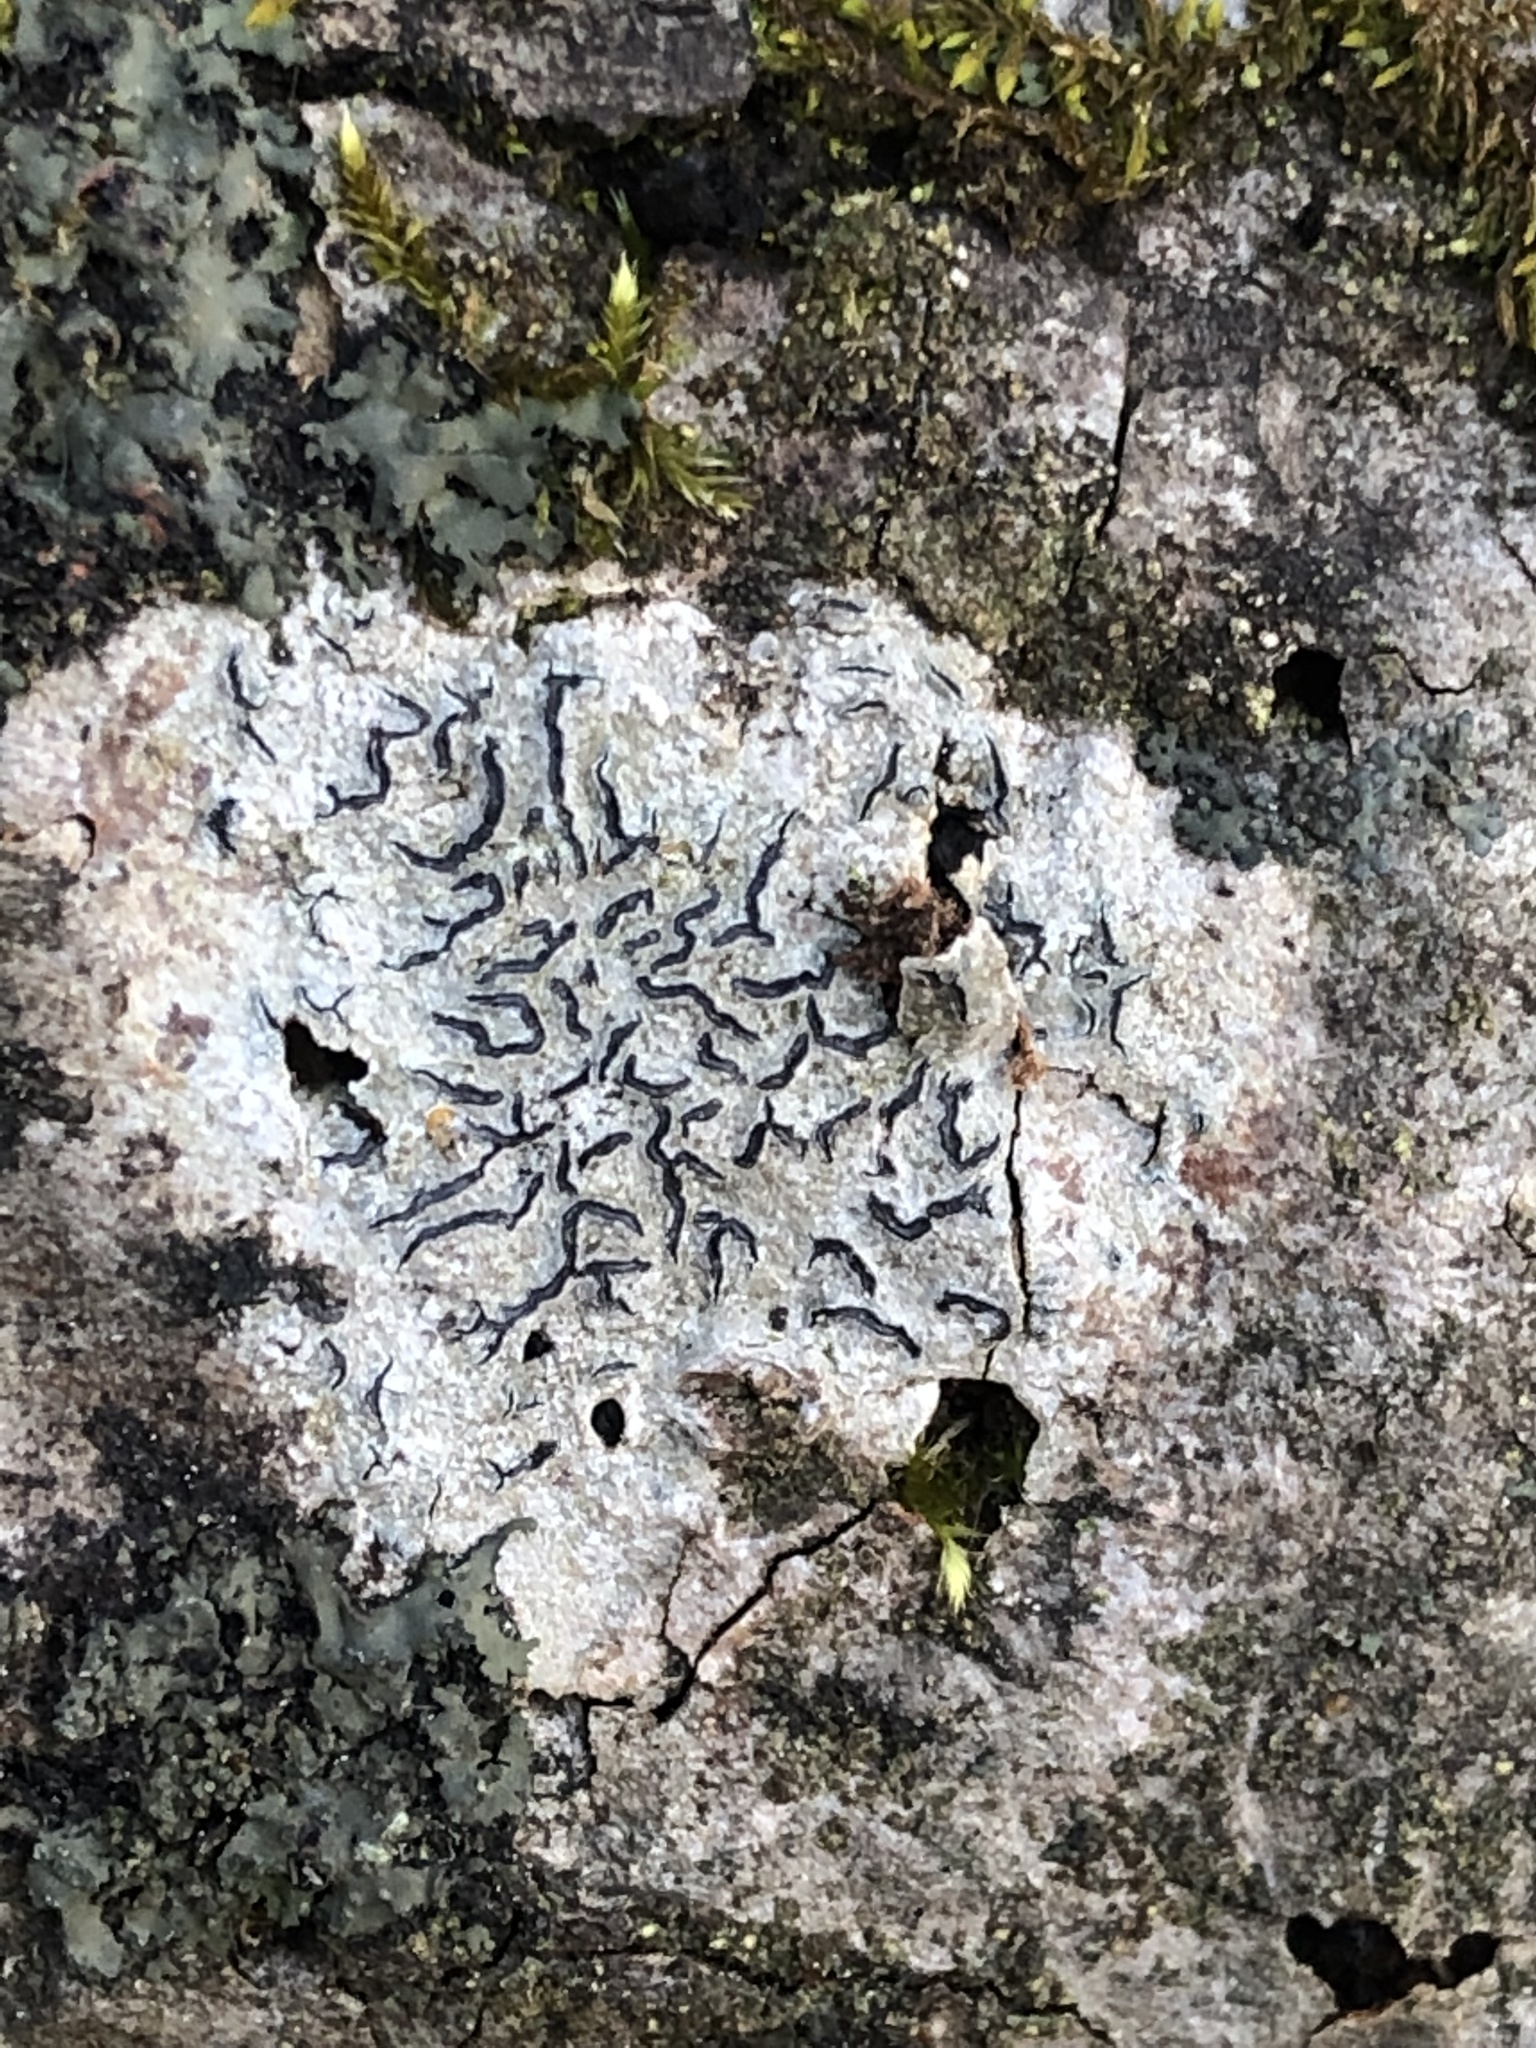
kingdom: Fungi
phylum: Ascomycota
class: Lecanoromycetes
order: Ostropales
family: Graphidaceae
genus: Graphis
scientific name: Graphis scripta
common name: Script lichen
